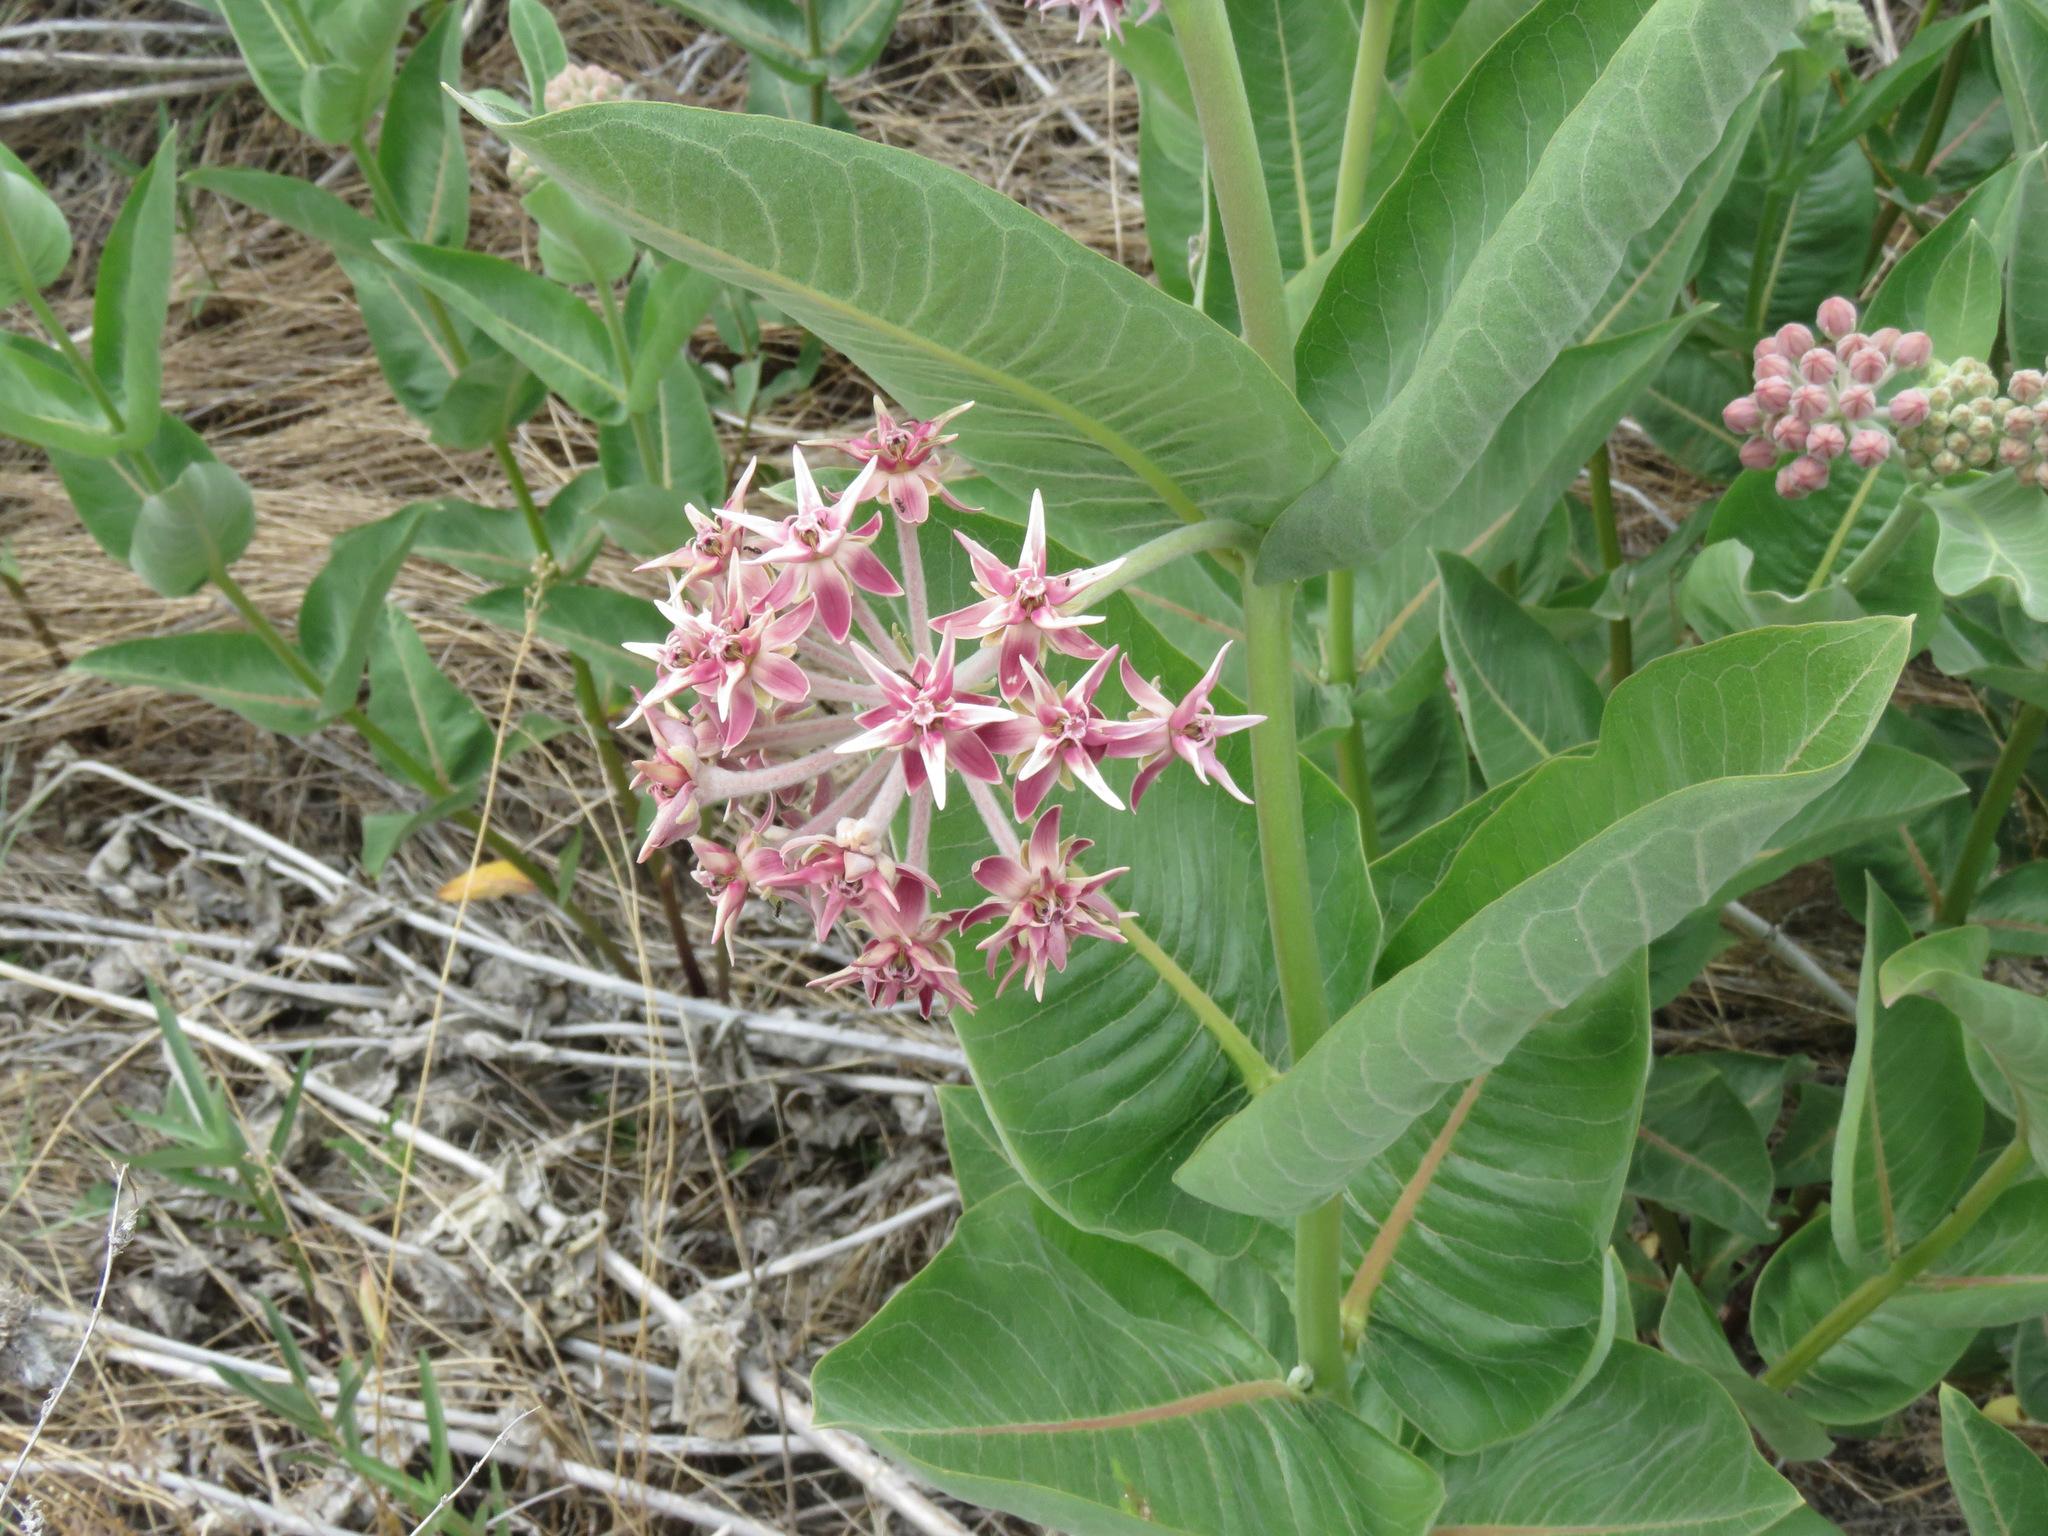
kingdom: Plantae
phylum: Tracheophyta
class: Magnoliopsida
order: Gentianales
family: Apocynaceae
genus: Asclepias
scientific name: Asclepias speciosa
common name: Showy milkweed
